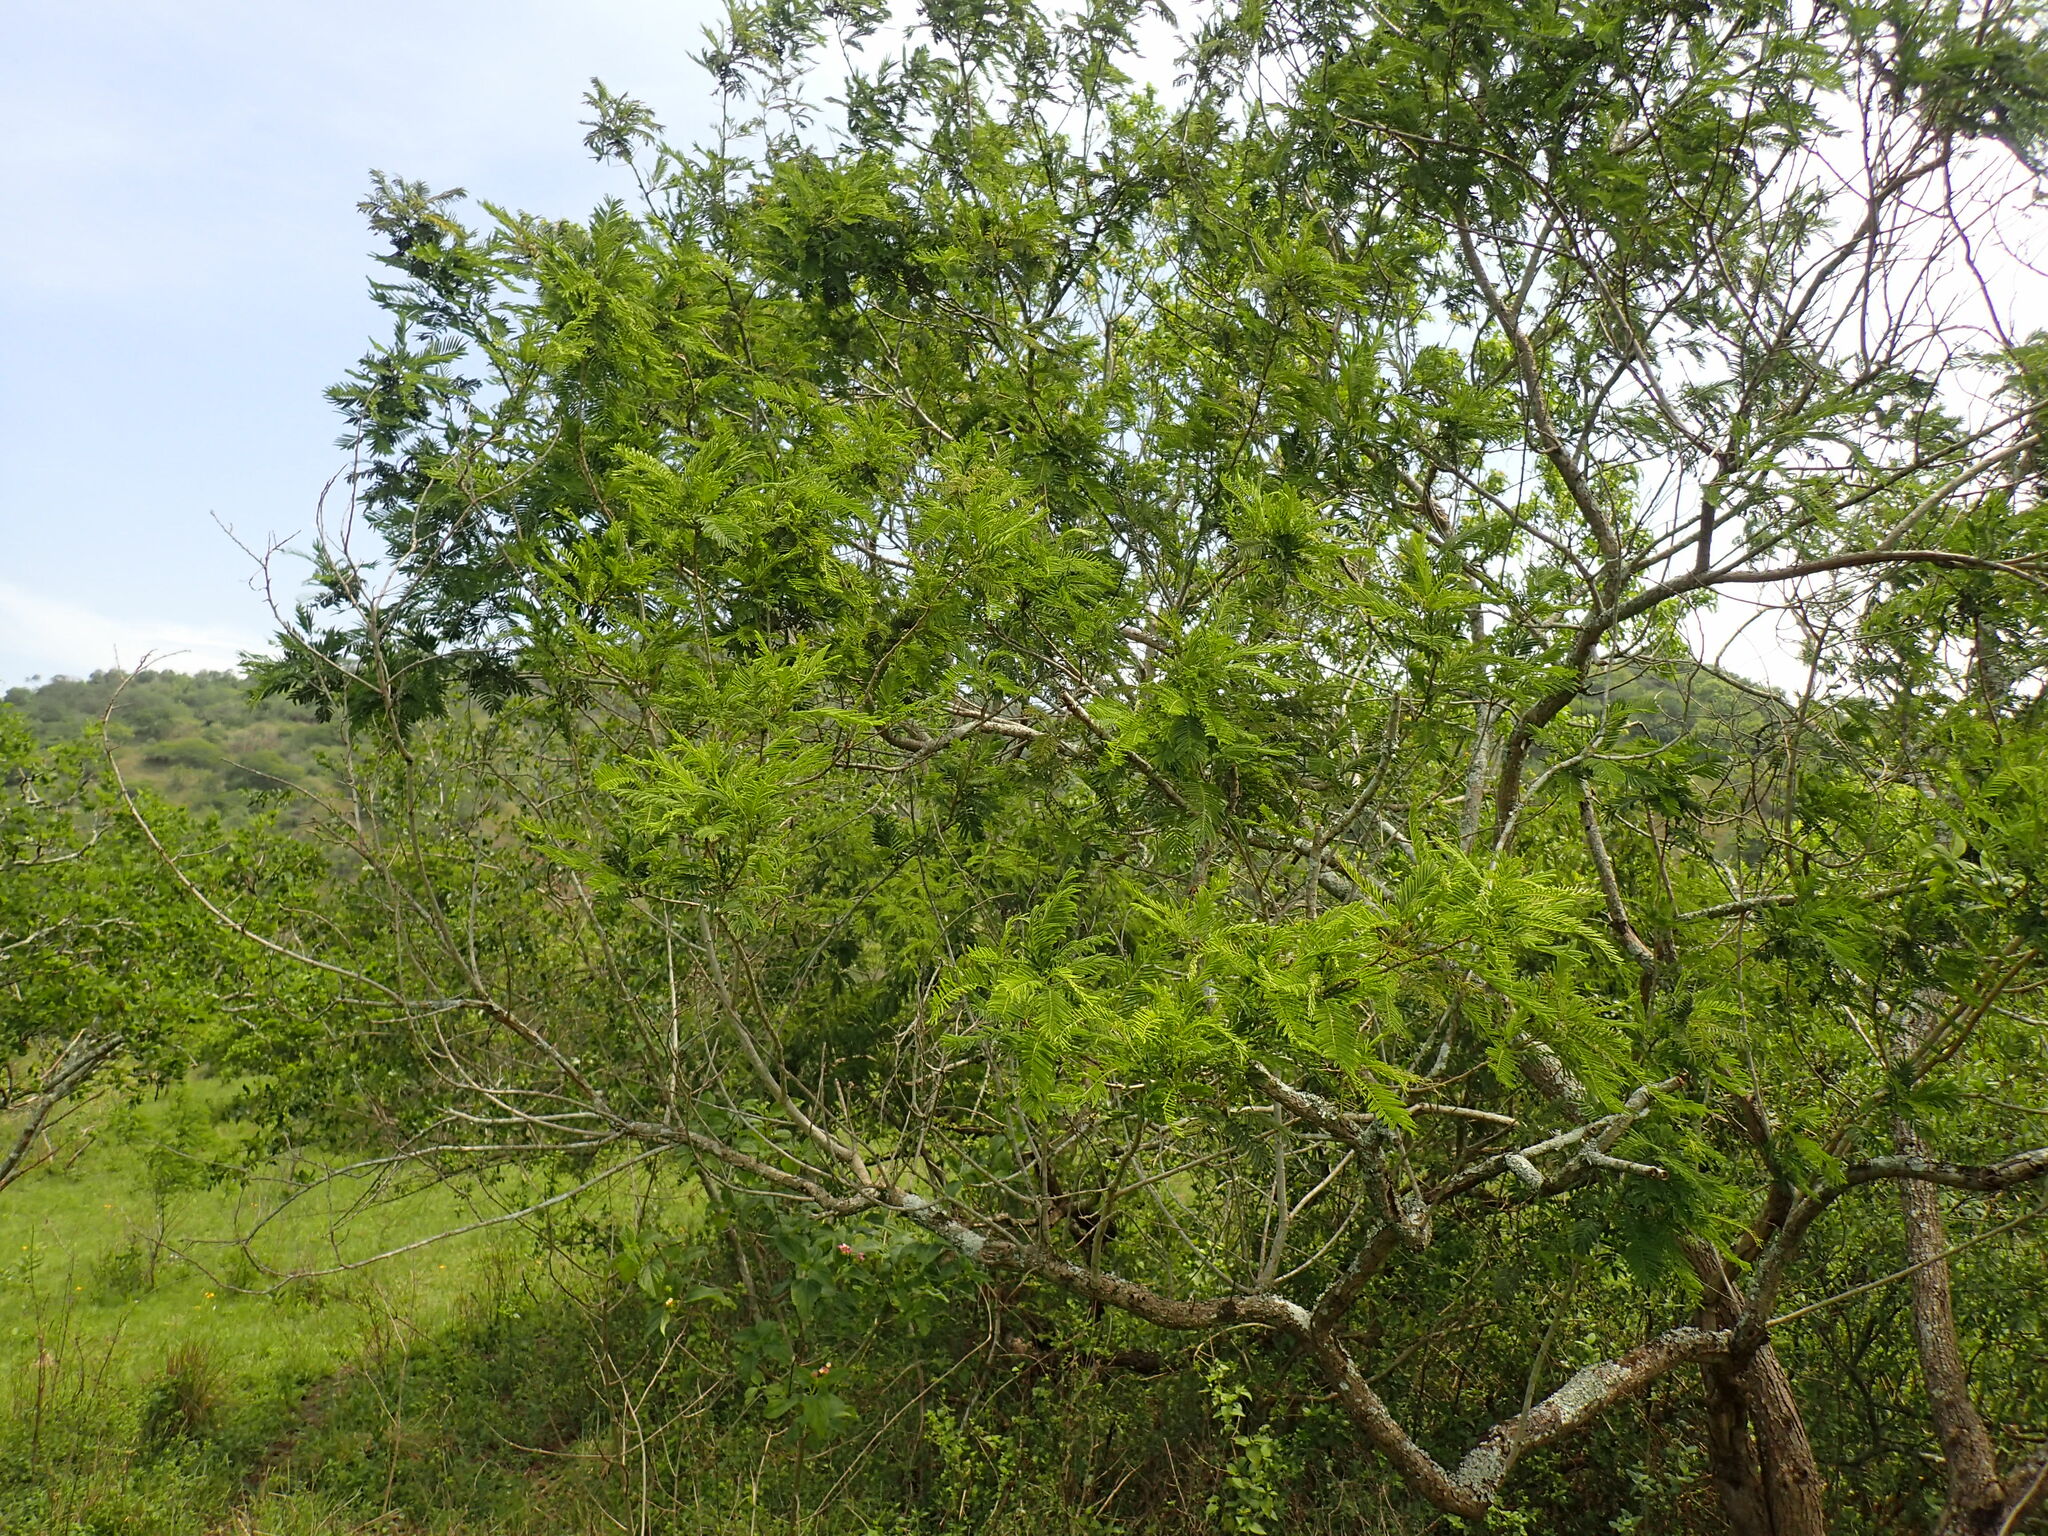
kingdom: Plantae
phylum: Tracheophyta
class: Magnoliopsida
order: Fabales
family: Fabaceae
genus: Senegalia
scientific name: Senegalia caffra
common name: Cat thorn
